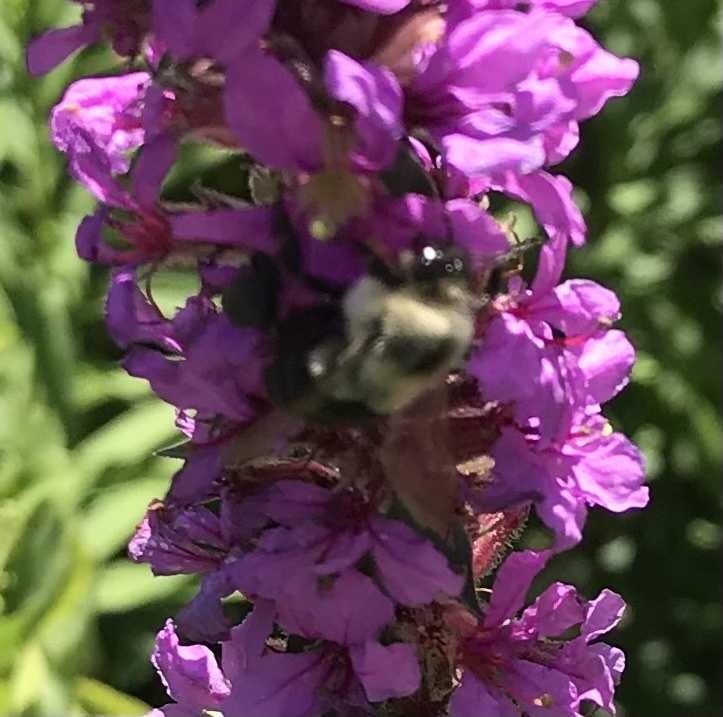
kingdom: Animalia
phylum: Arthropoda
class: Insecta
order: Hymenoptera
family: Apidae
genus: Bombus
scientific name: Bombus impatiens
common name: Common eastern bumble bee
